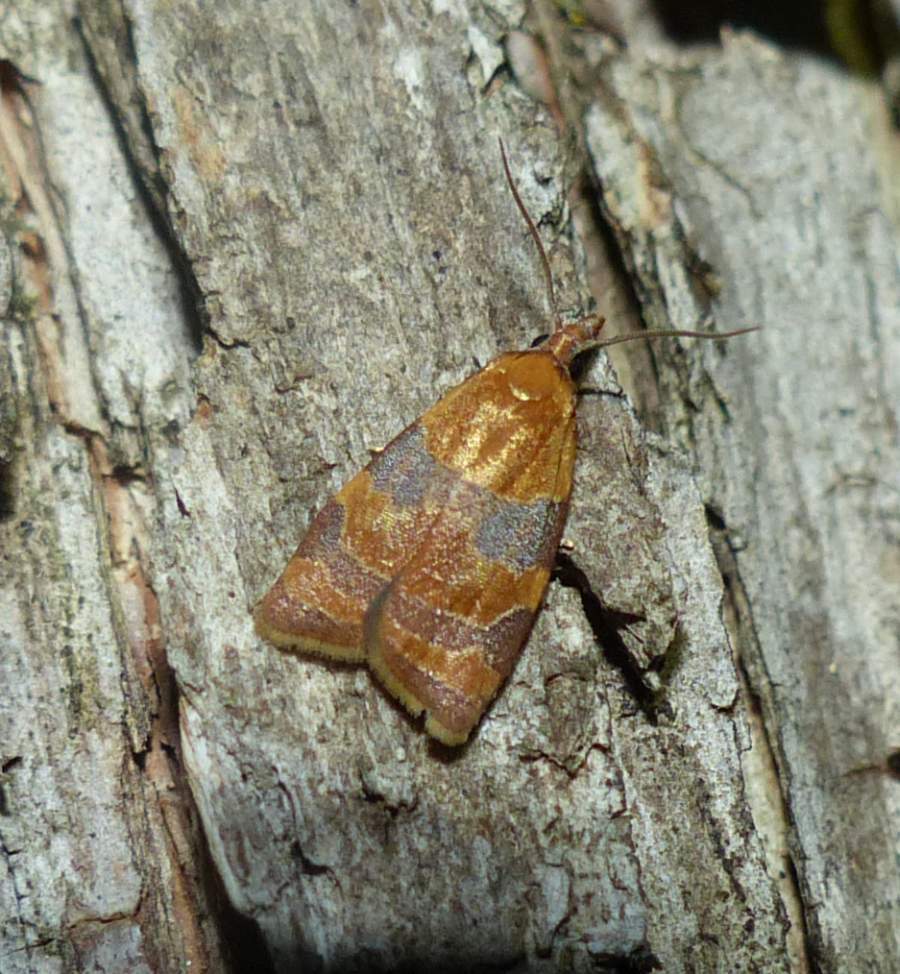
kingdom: Animalia
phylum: Arthropoda
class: Insecta
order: Lepidoptera
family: Tortricidae
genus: Cenopis
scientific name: Cenopis diluticostana
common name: Spring dead-leaf roller moth
